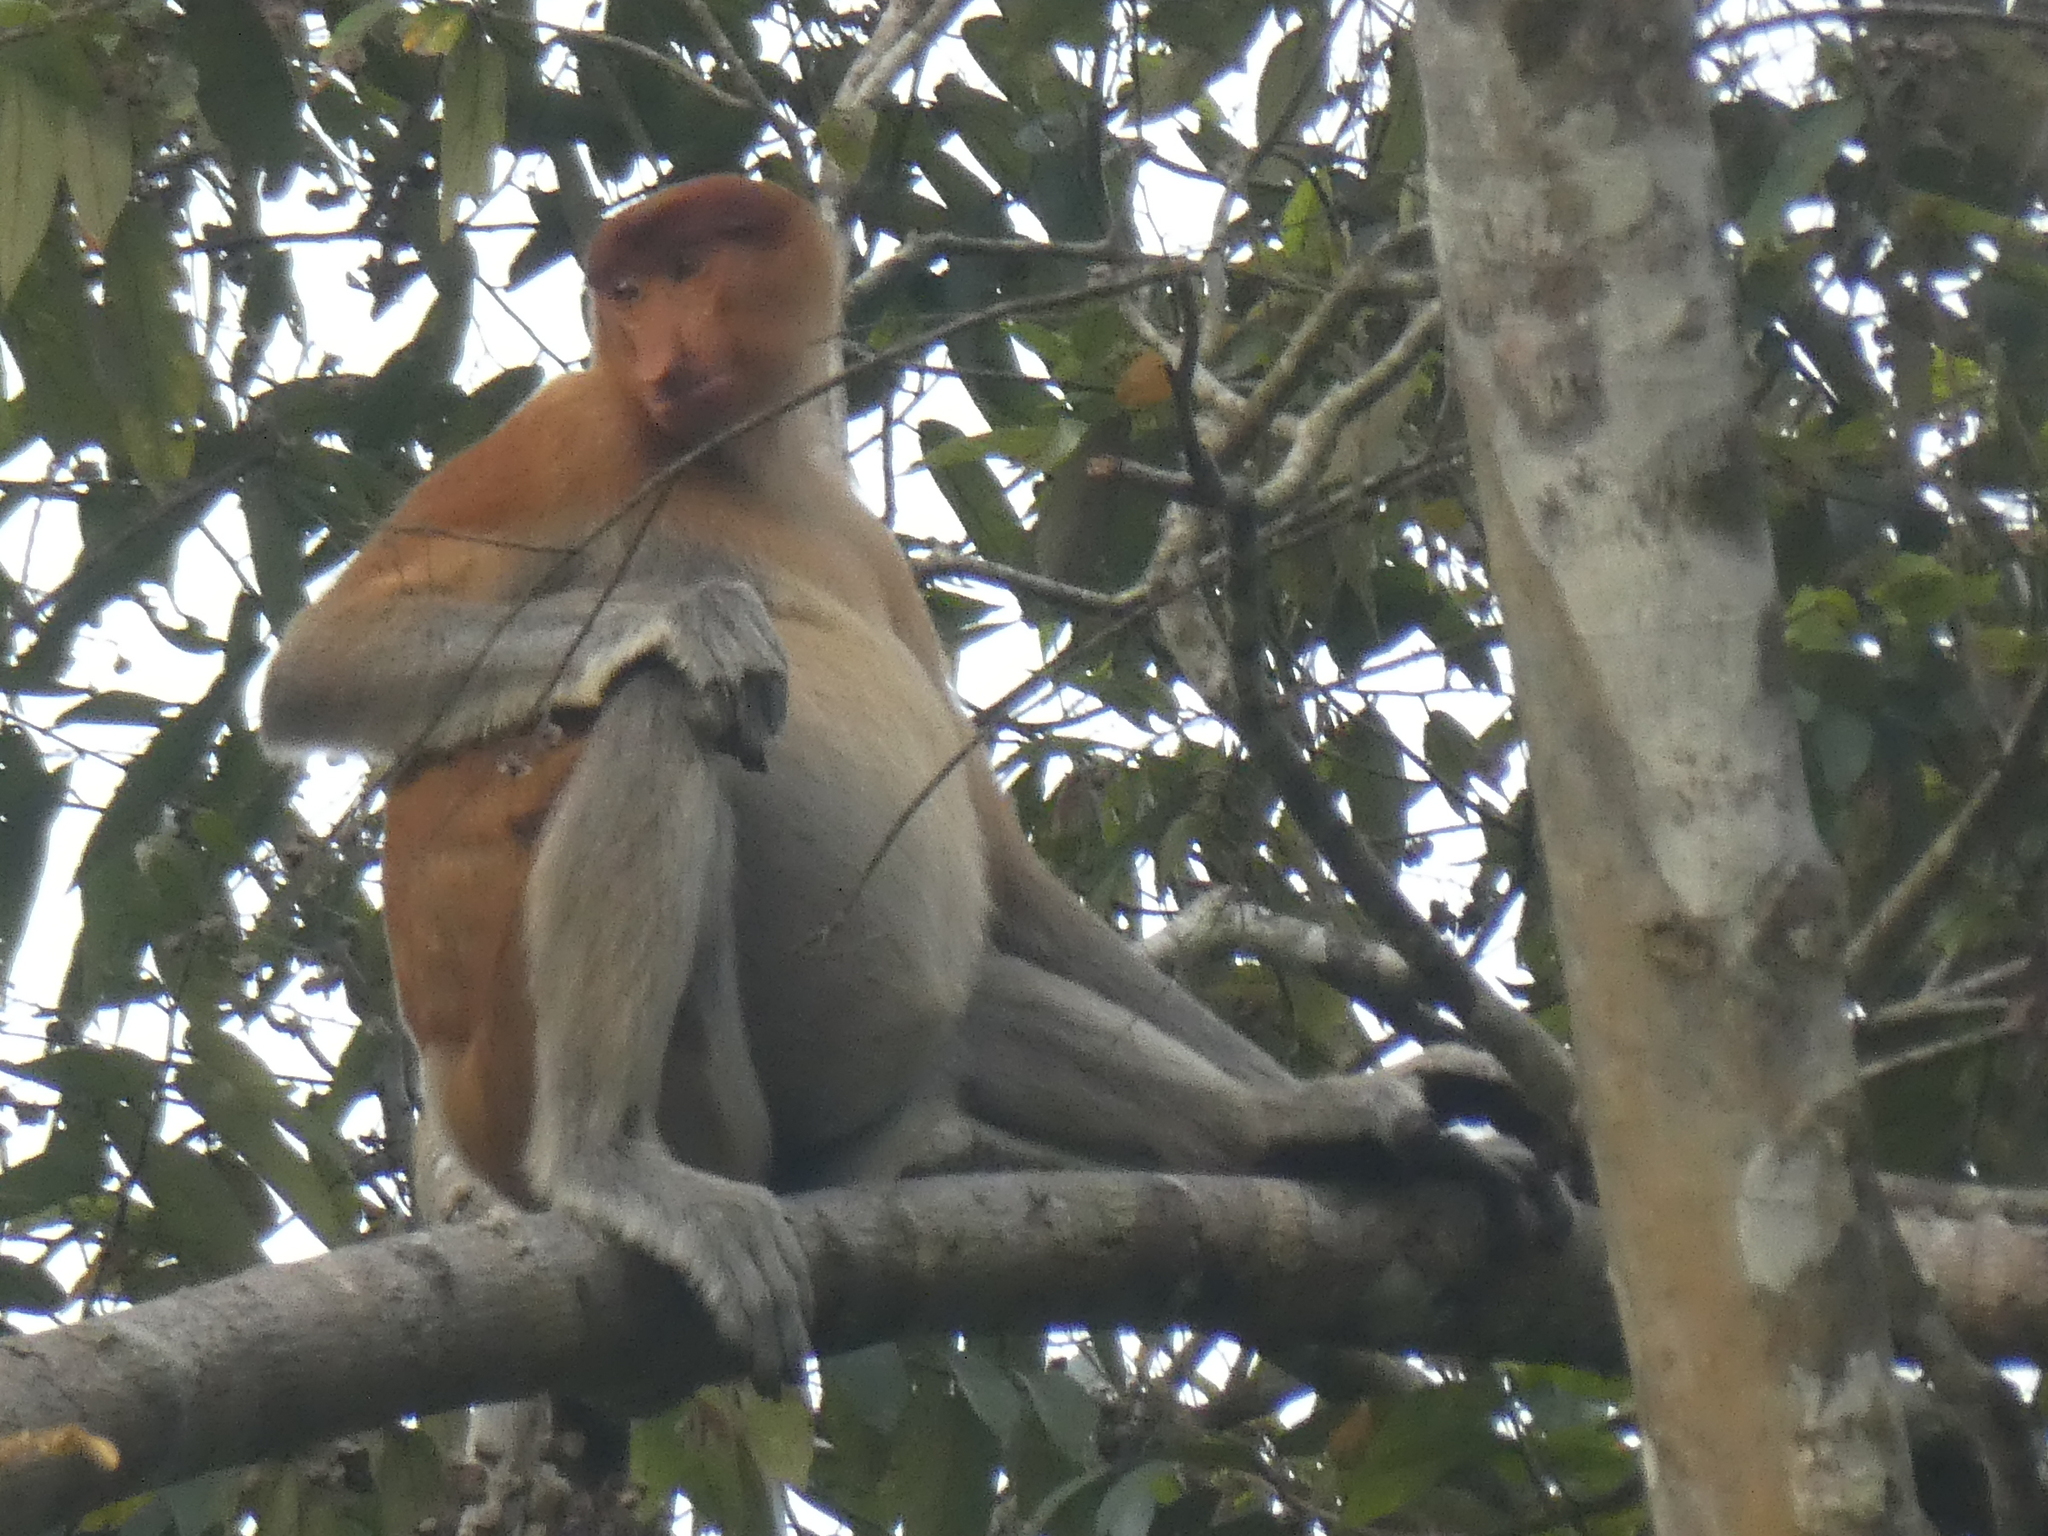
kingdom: Animalia
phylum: Chordata
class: Mammalia
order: Primates
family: Cercopithecidae
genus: Nasalis
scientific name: Nasalis larvatus
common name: Proboscis monkey
